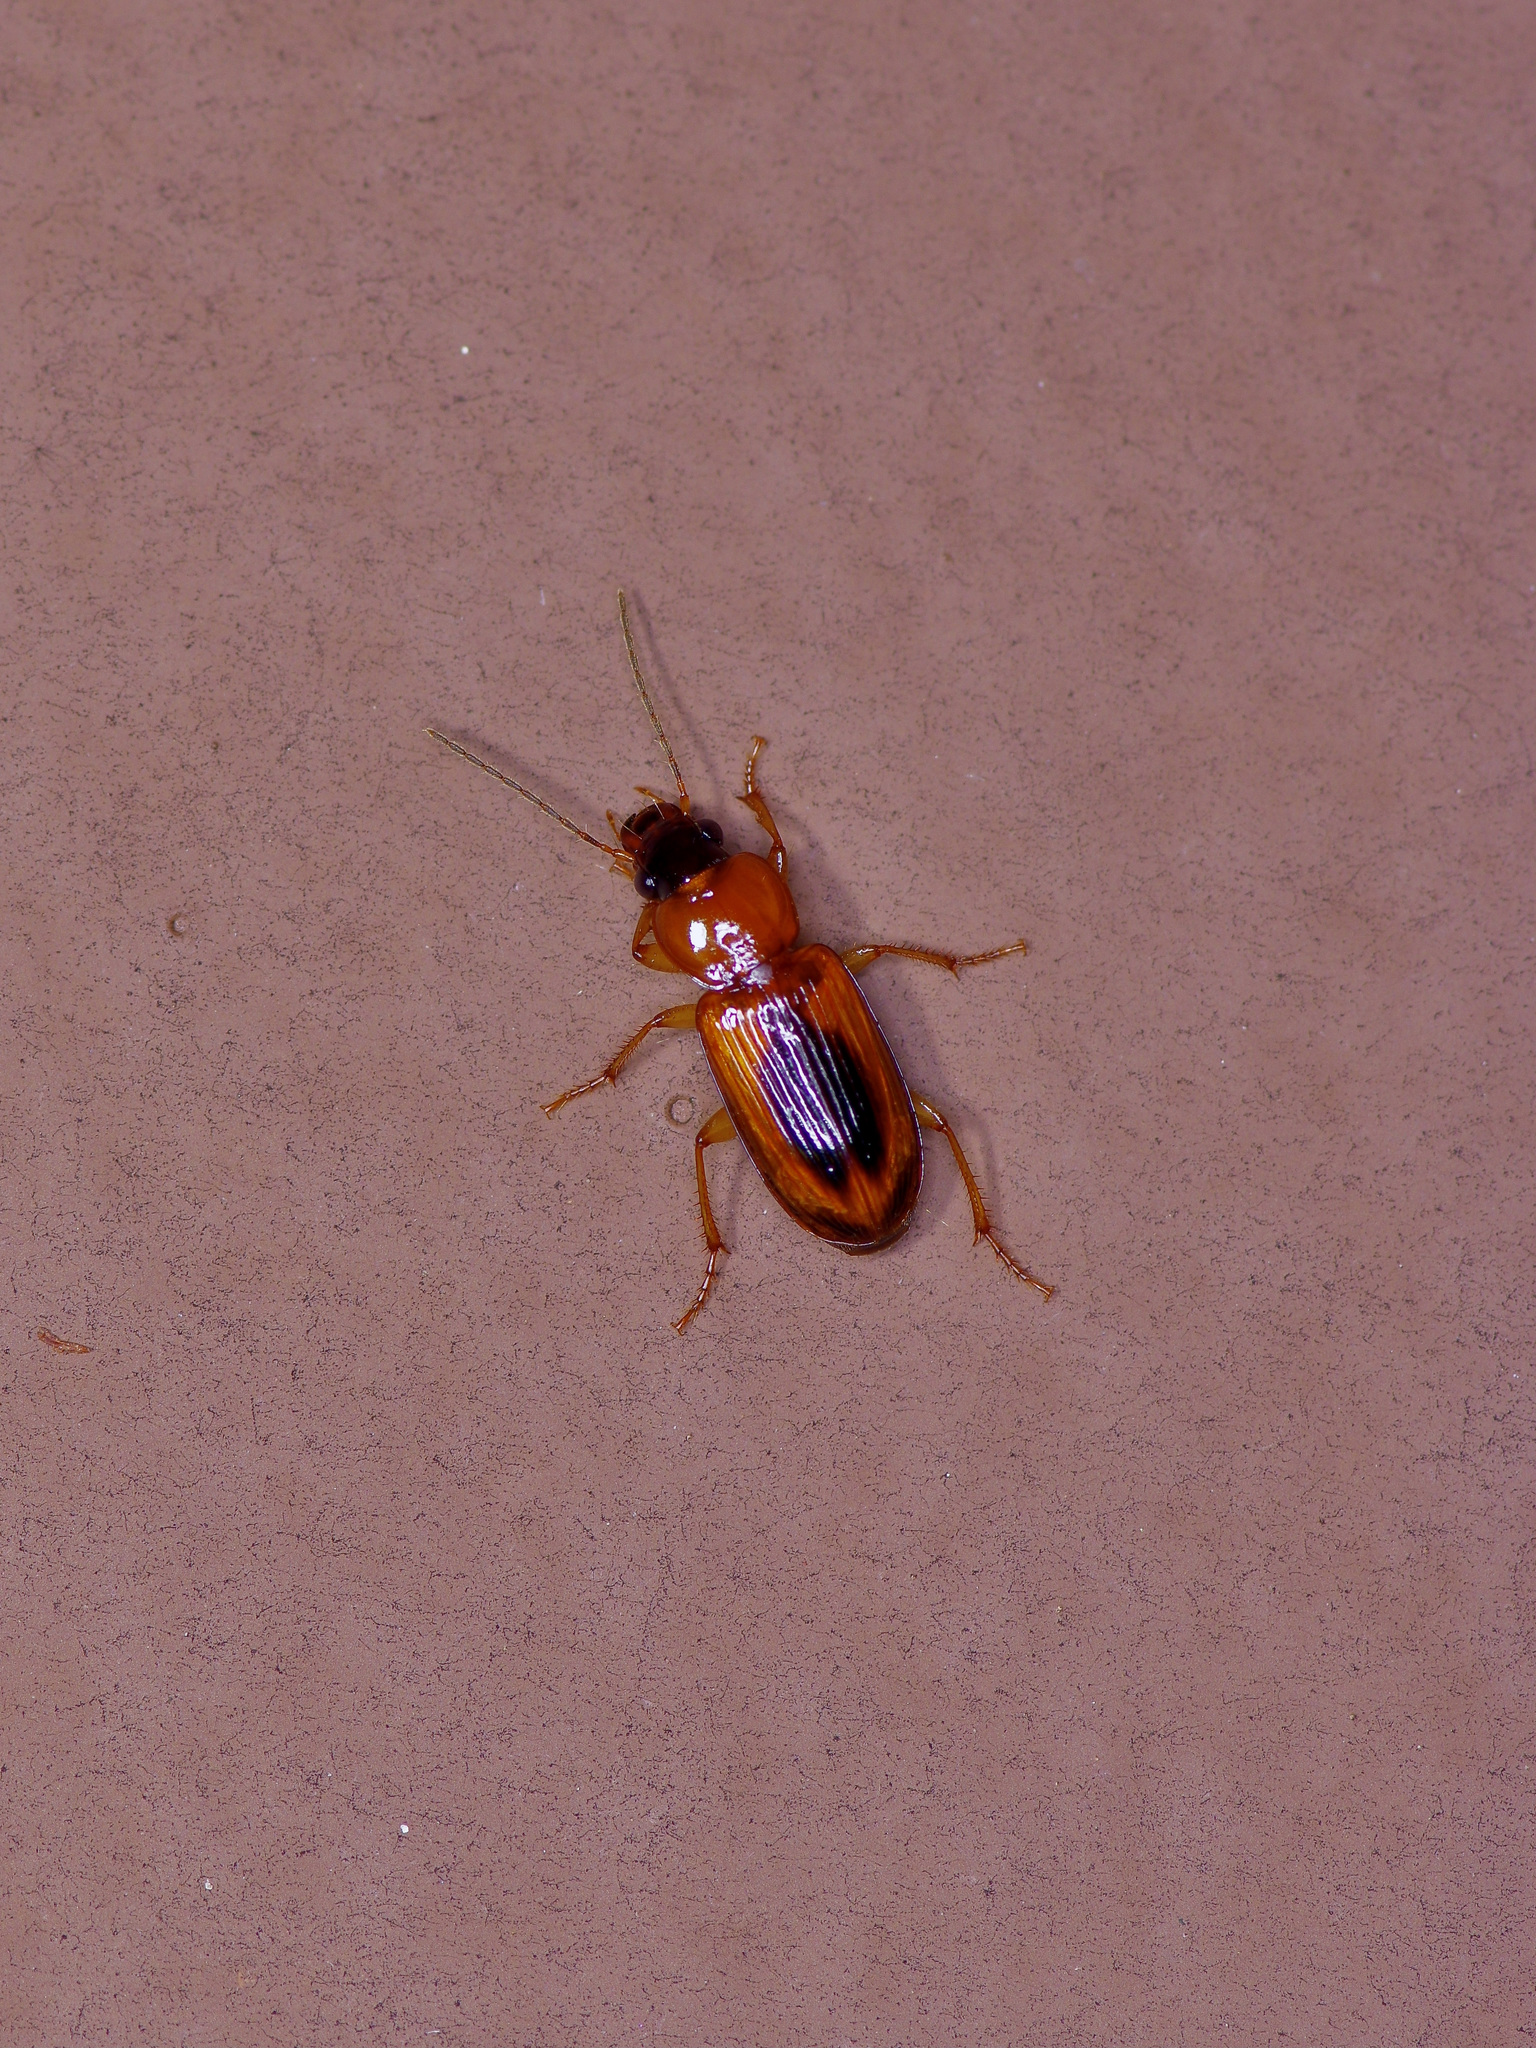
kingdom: Animalia
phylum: Arthropoda
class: Insecta
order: Coleoptera
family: Carabidae
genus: Stenolophus
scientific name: Stenolophus dissimilis
